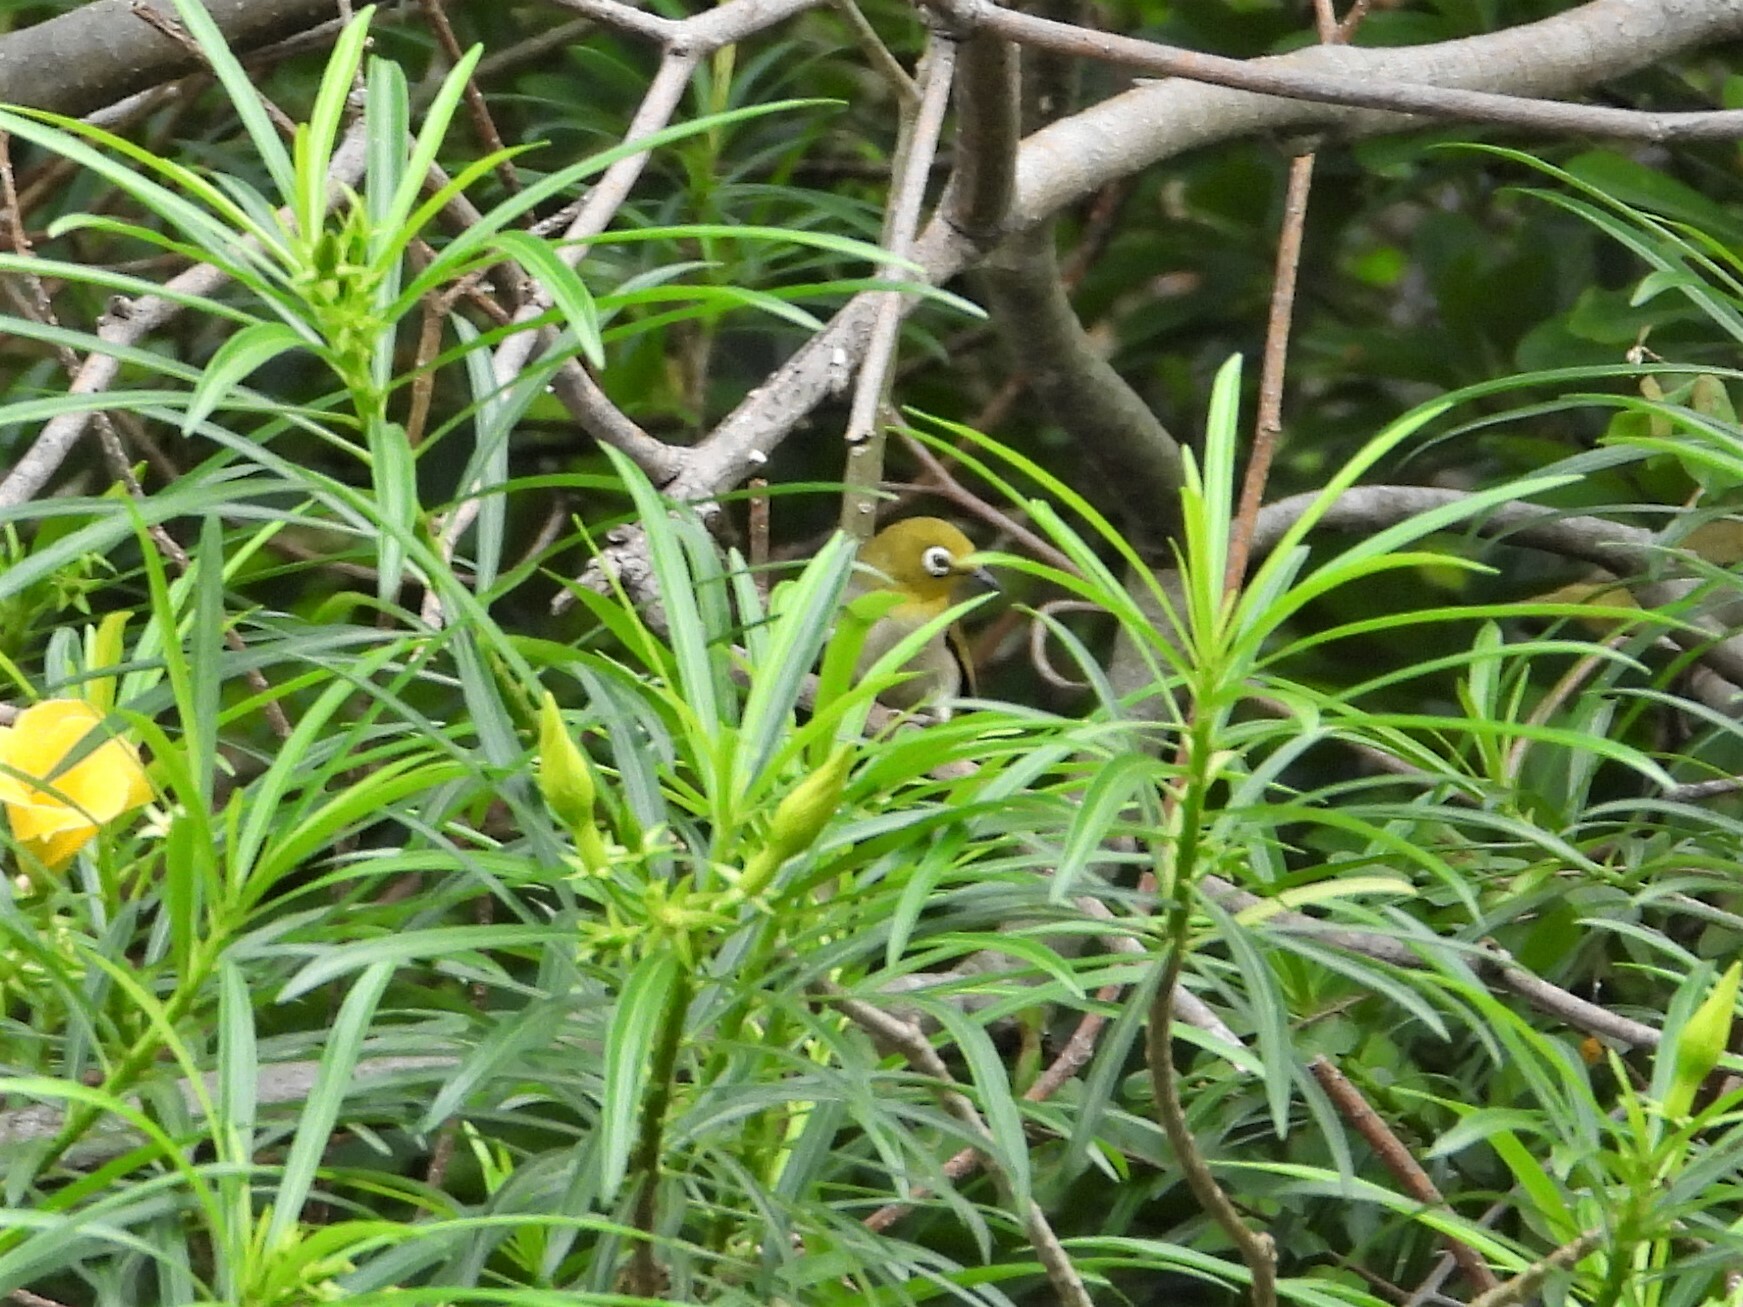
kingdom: Animalia
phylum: Chordata
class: Aves
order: Passeriformes
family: Zosteropidae
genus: Zosterops
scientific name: Zosterops simplex
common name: Swinhoe's white-eye
